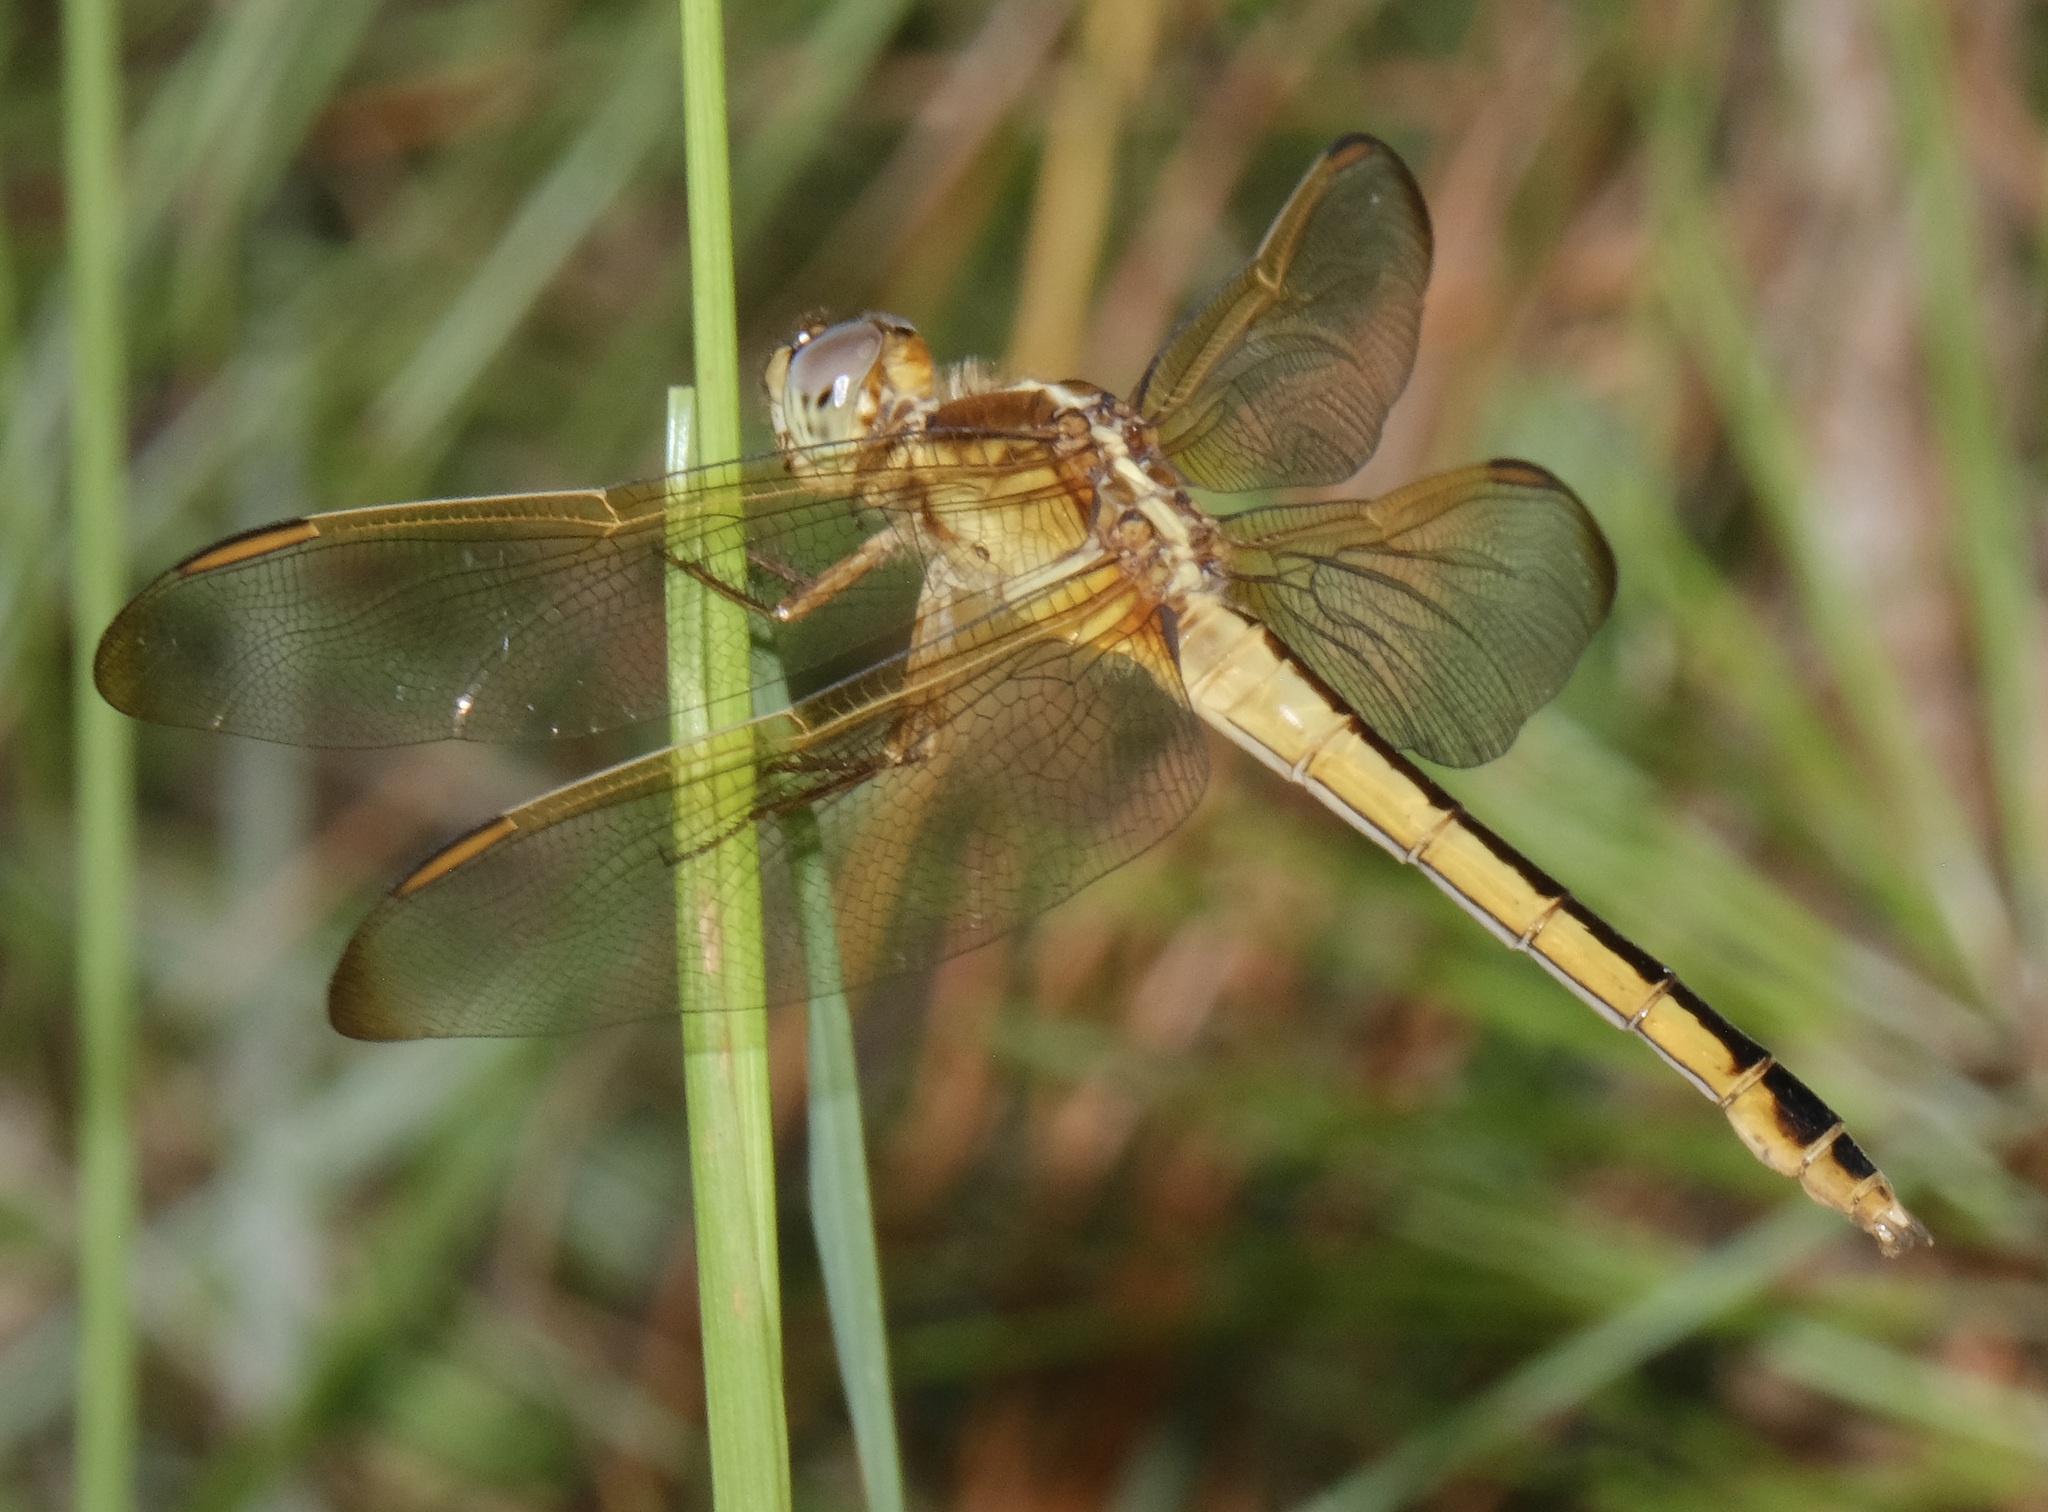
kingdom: Animalia
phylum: Arthropoda
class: Insecta
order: Odonata
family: Libellulidae
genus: Libellula
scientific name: Libellula needhami
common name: Needham's skimmer
